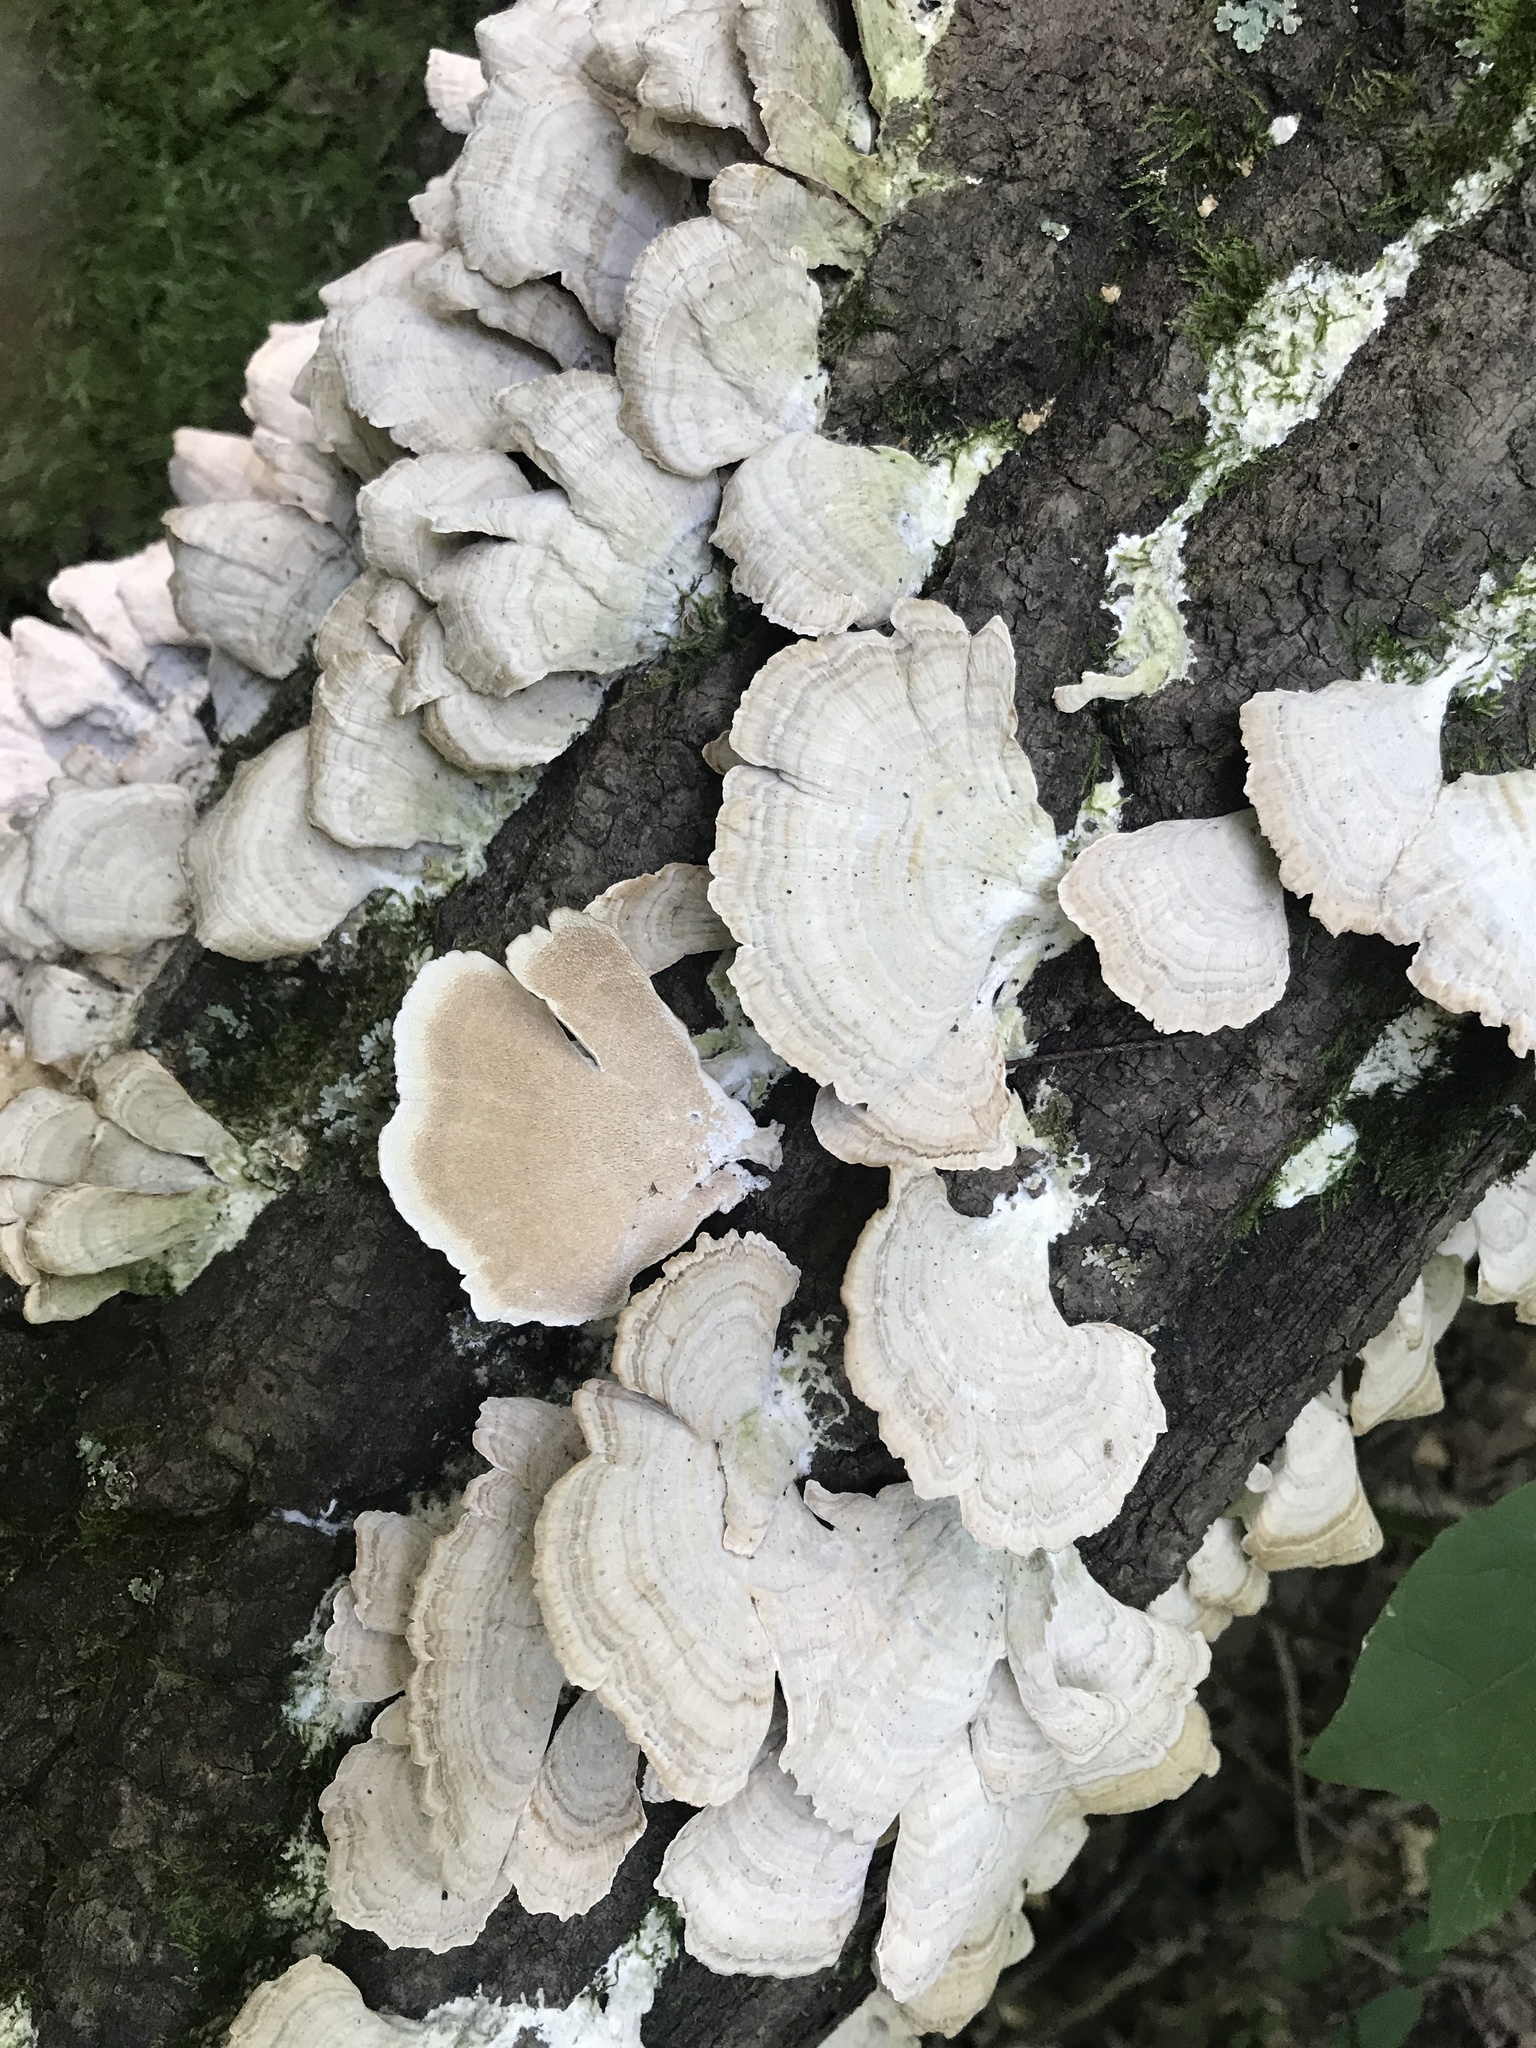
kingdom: Fungi
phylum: Basidiomycota
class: Agaricomycetes
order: Hymenochaetales
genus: Trichaptum
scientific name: Trichaptum biforme
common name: Violet-toothed polypore
